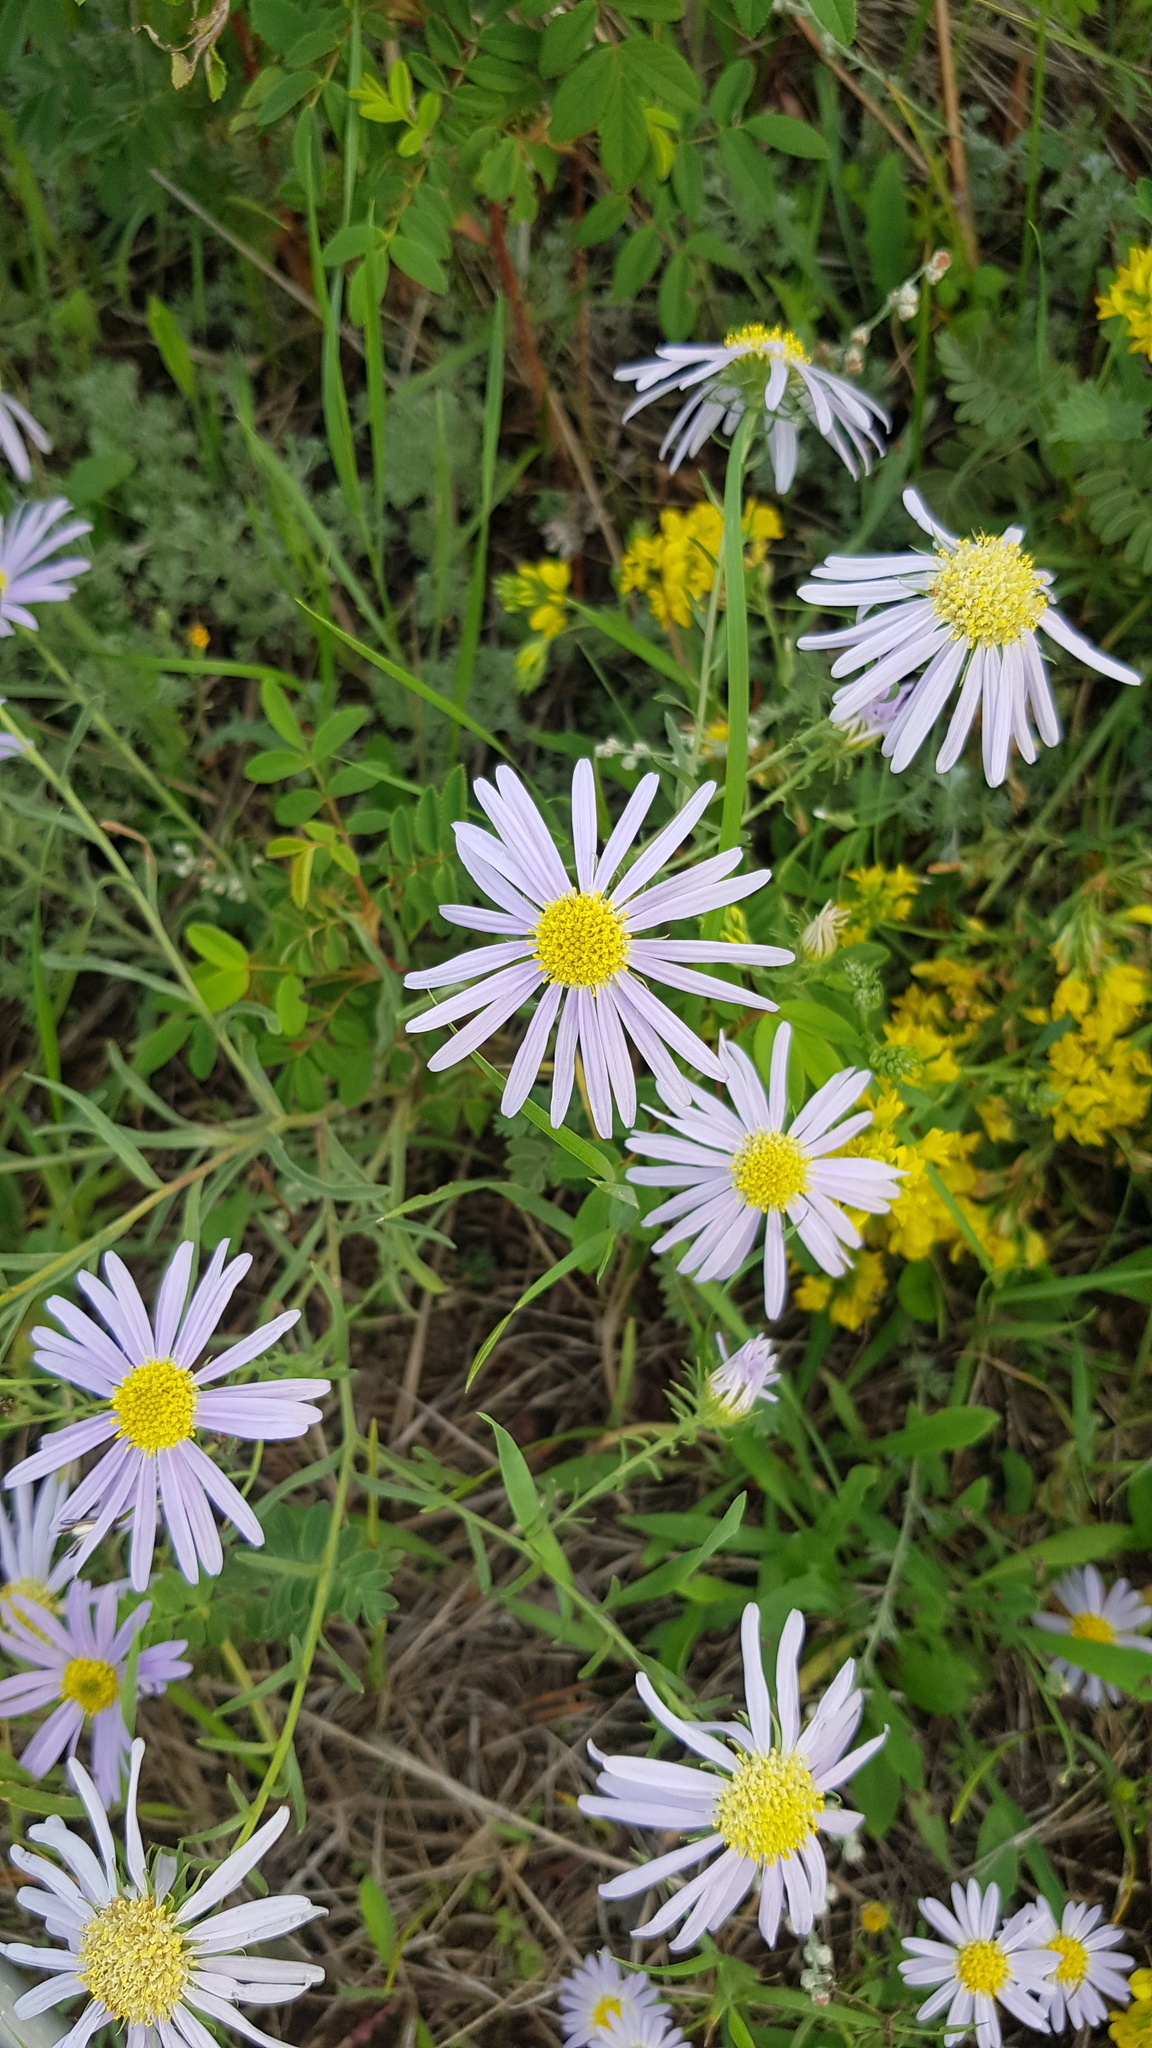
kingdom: Plantae
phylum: Tracheophyta
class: Magnoliopsida
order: Asterales
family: Asteraceae
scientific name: Asteraceae
